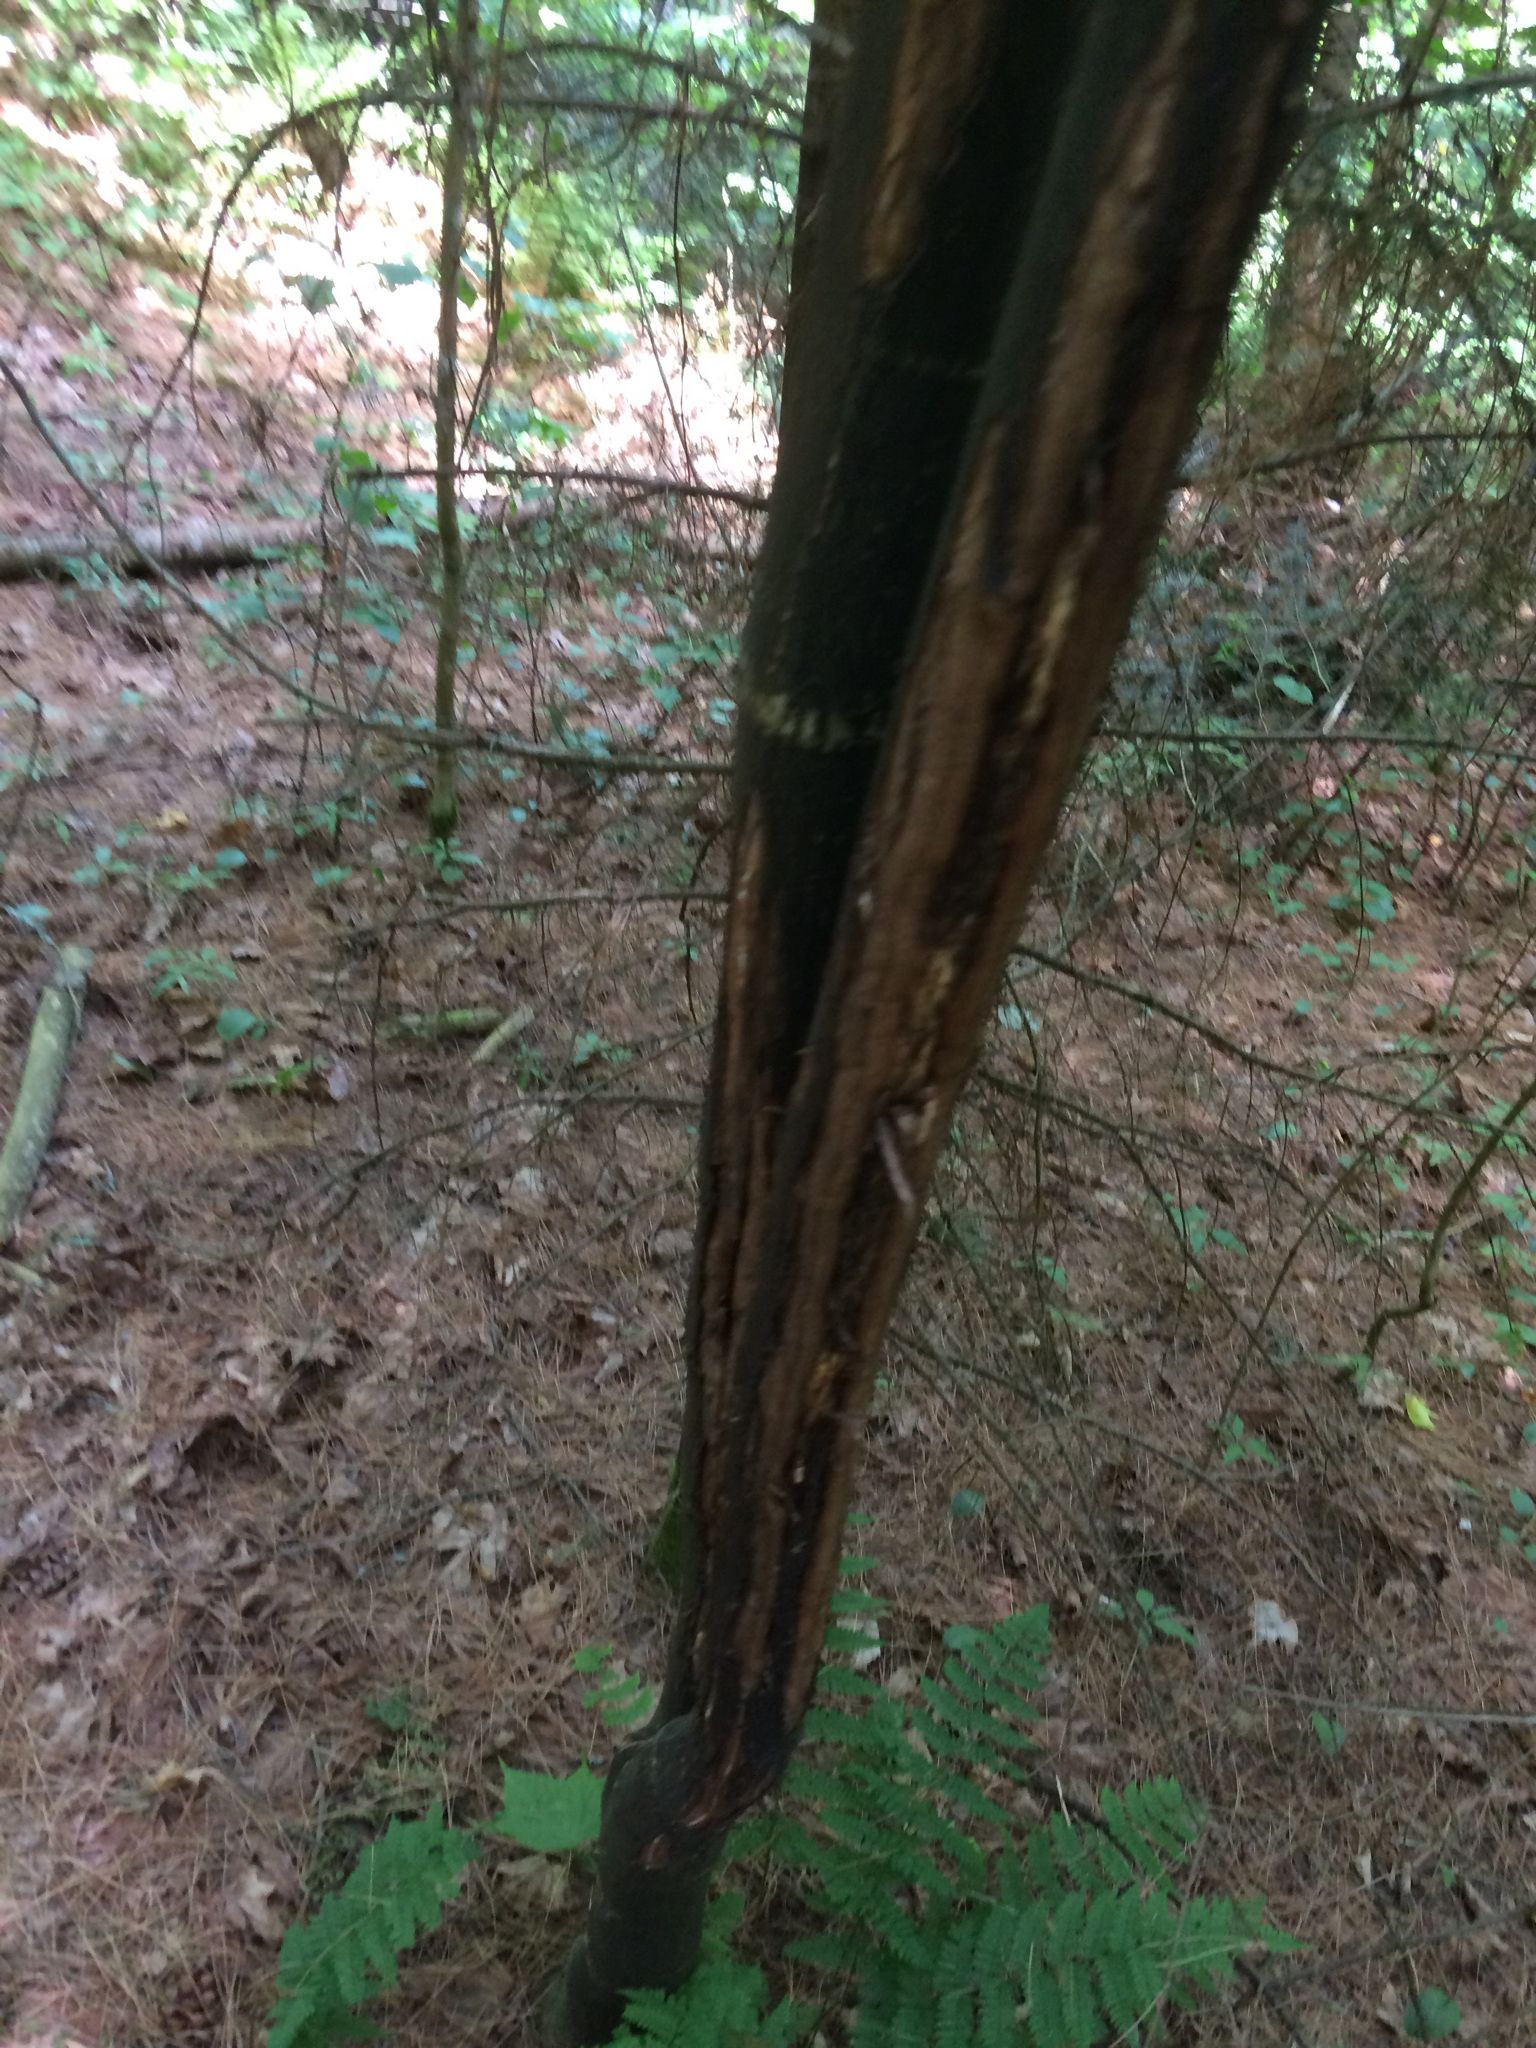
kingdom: Animalia
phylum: Chordata
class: Mammalia
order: Artiodactyla
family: Cervidae
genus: Alces
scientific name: Alces alces
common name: Moose
